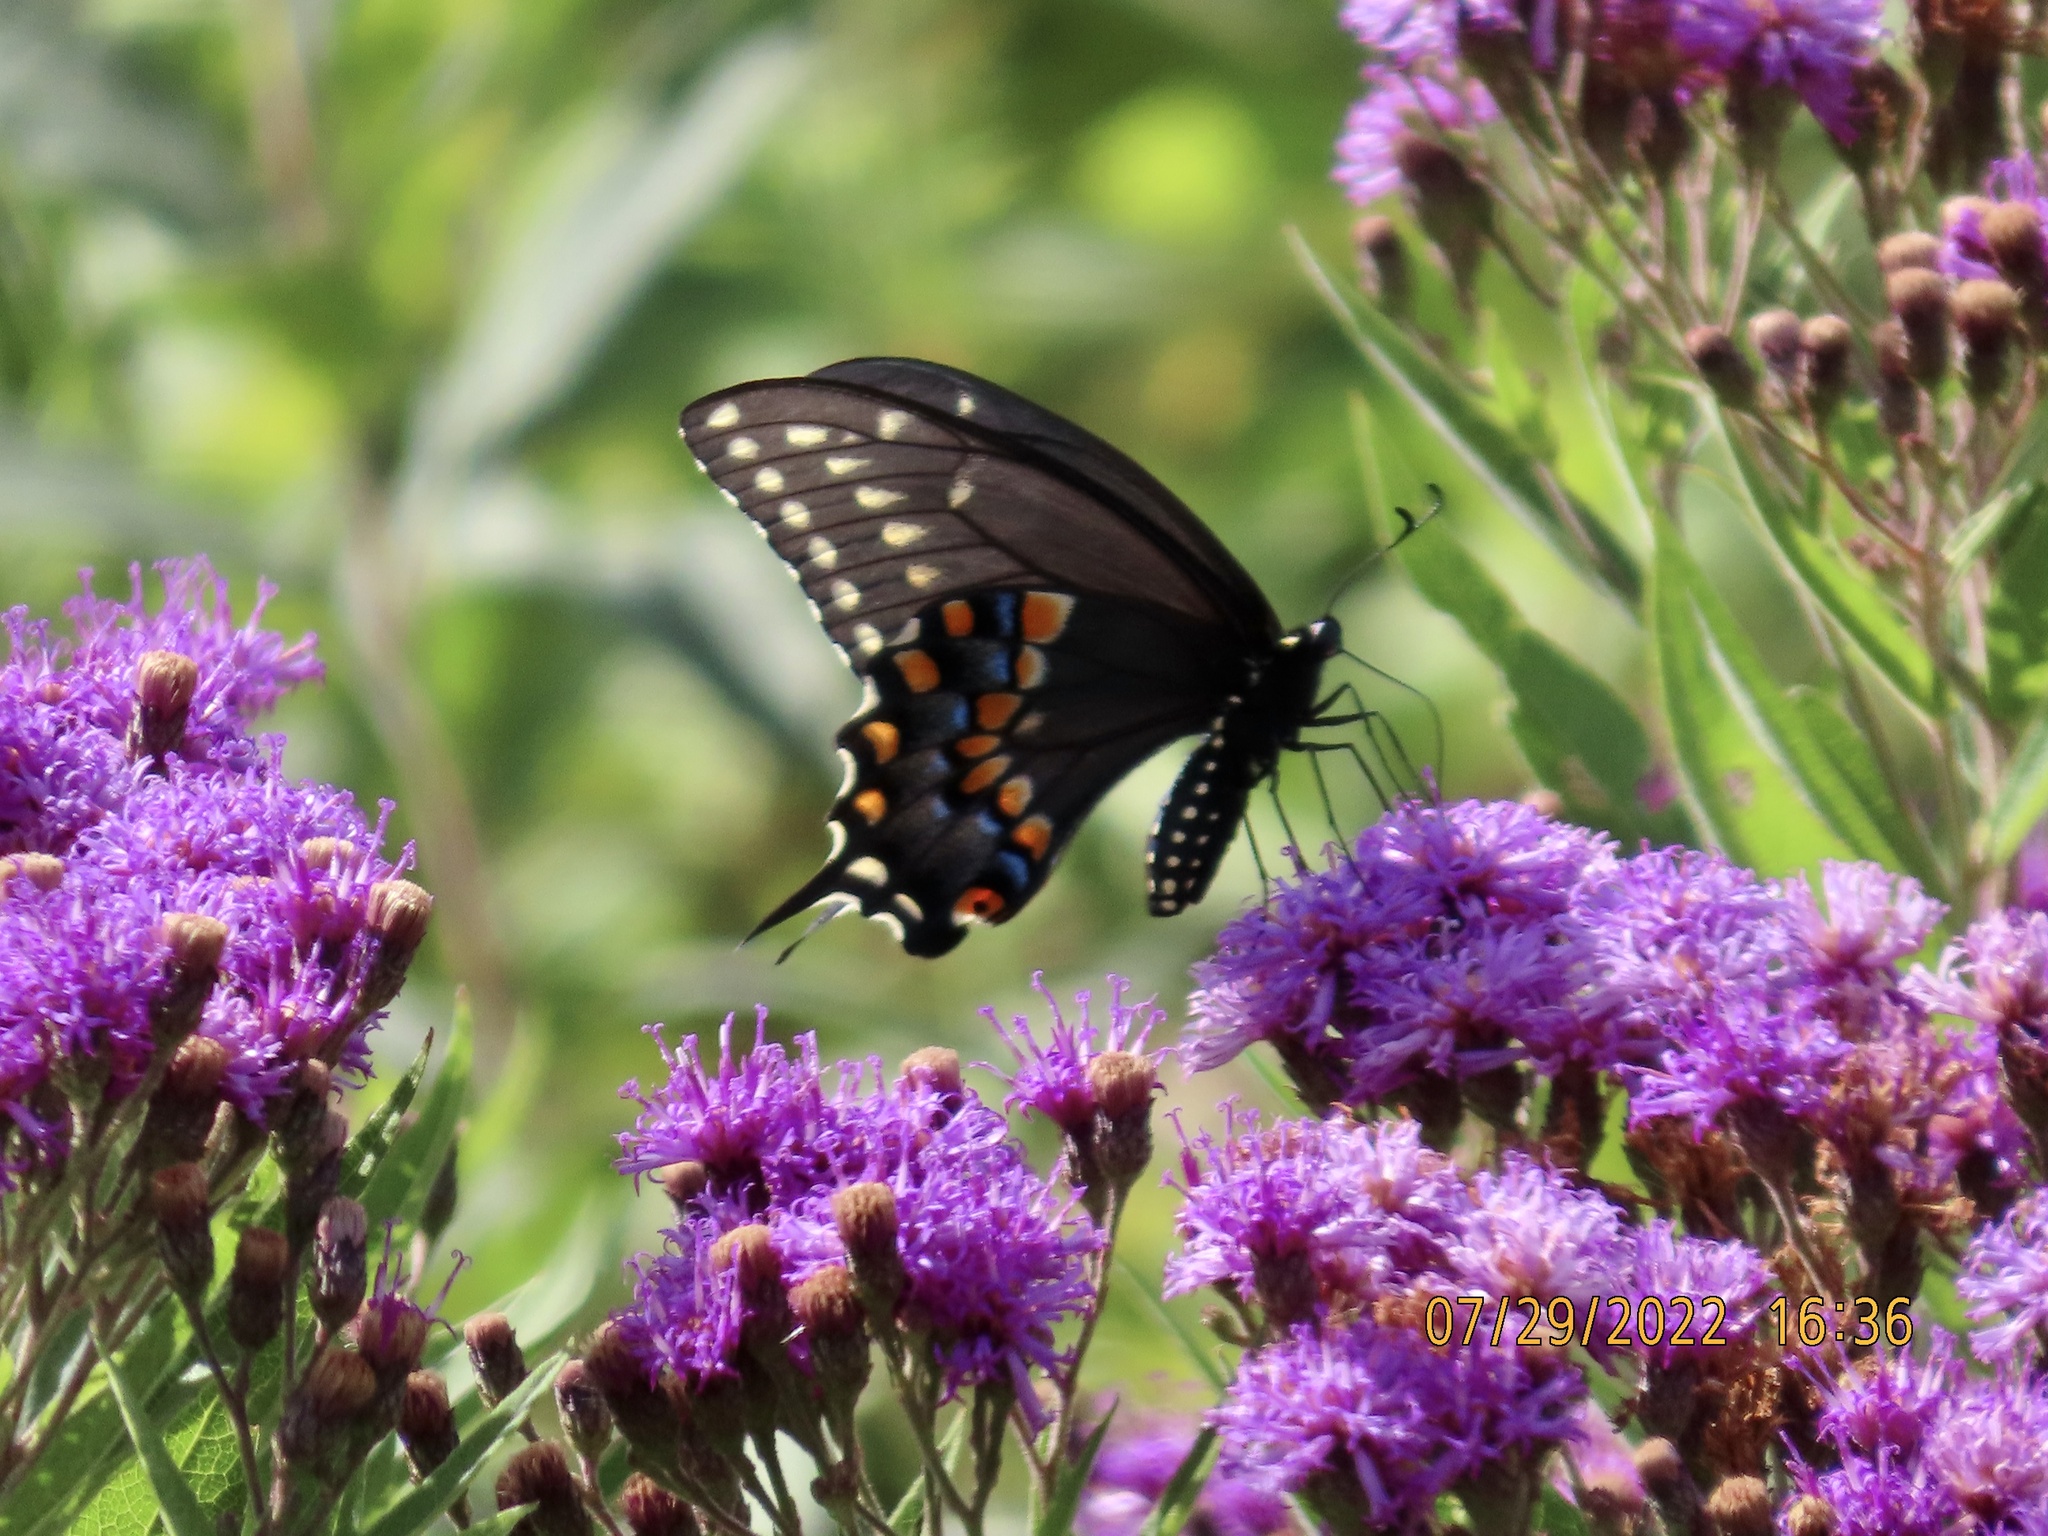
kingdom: Animalia
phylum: Arthropoda
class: Insecta
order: Lepidoptera
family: Papilionidae
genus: Papilio
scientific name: Papilio polyxenes
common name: Black swallowtail
